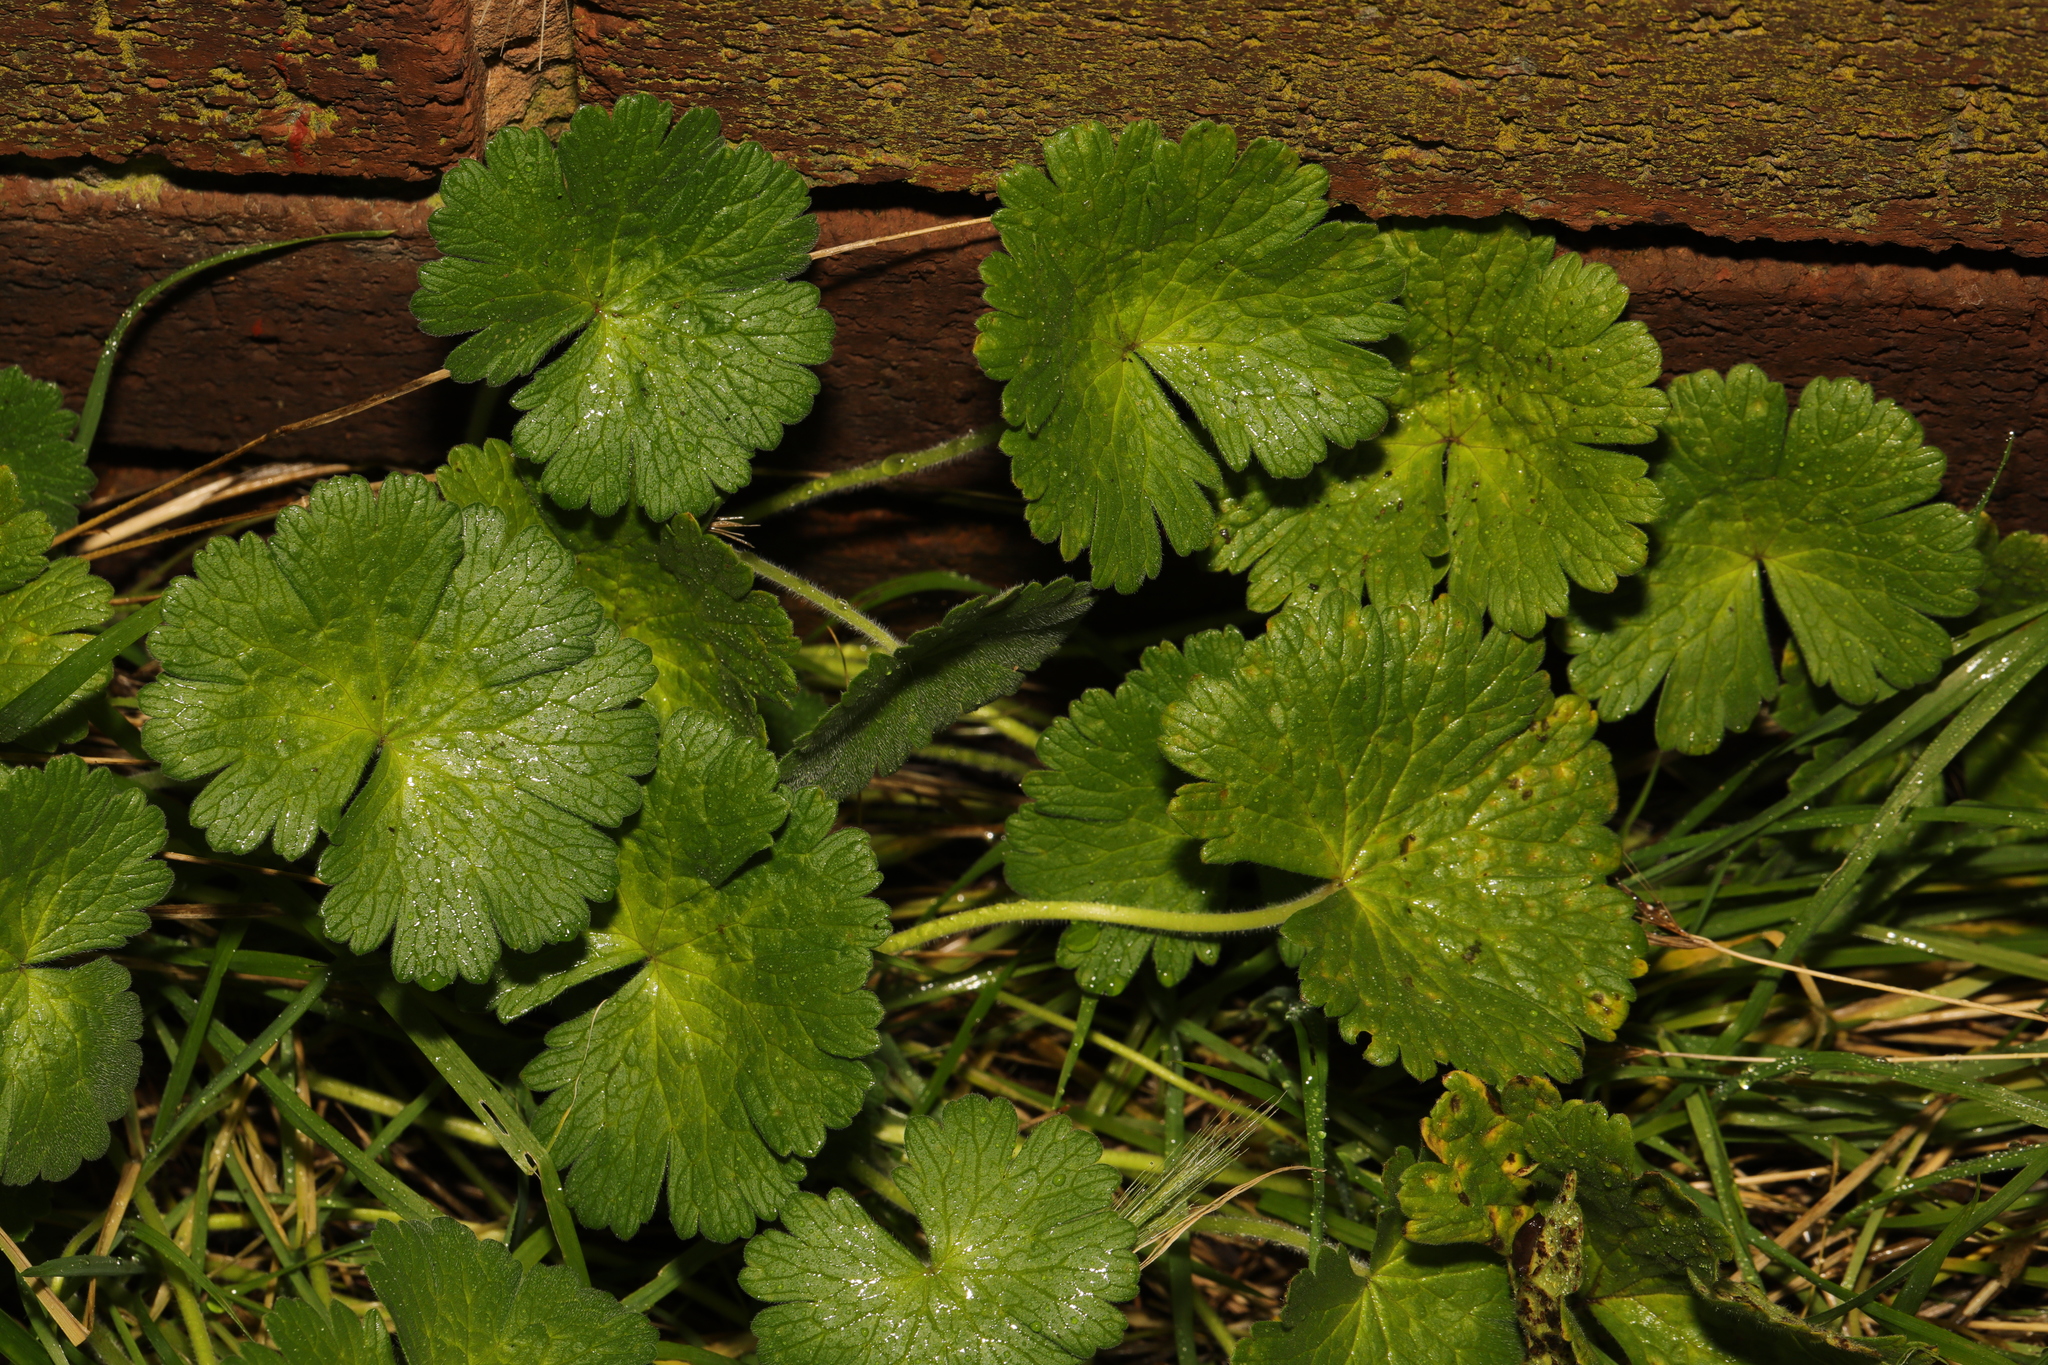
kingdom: Plantae
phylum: Tracheophyta
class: Magnoliopsida
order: Geraniales
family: Geraniaceae
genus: Geranium
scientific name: Geranium molle
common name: Dove's-foot crane's-bill
